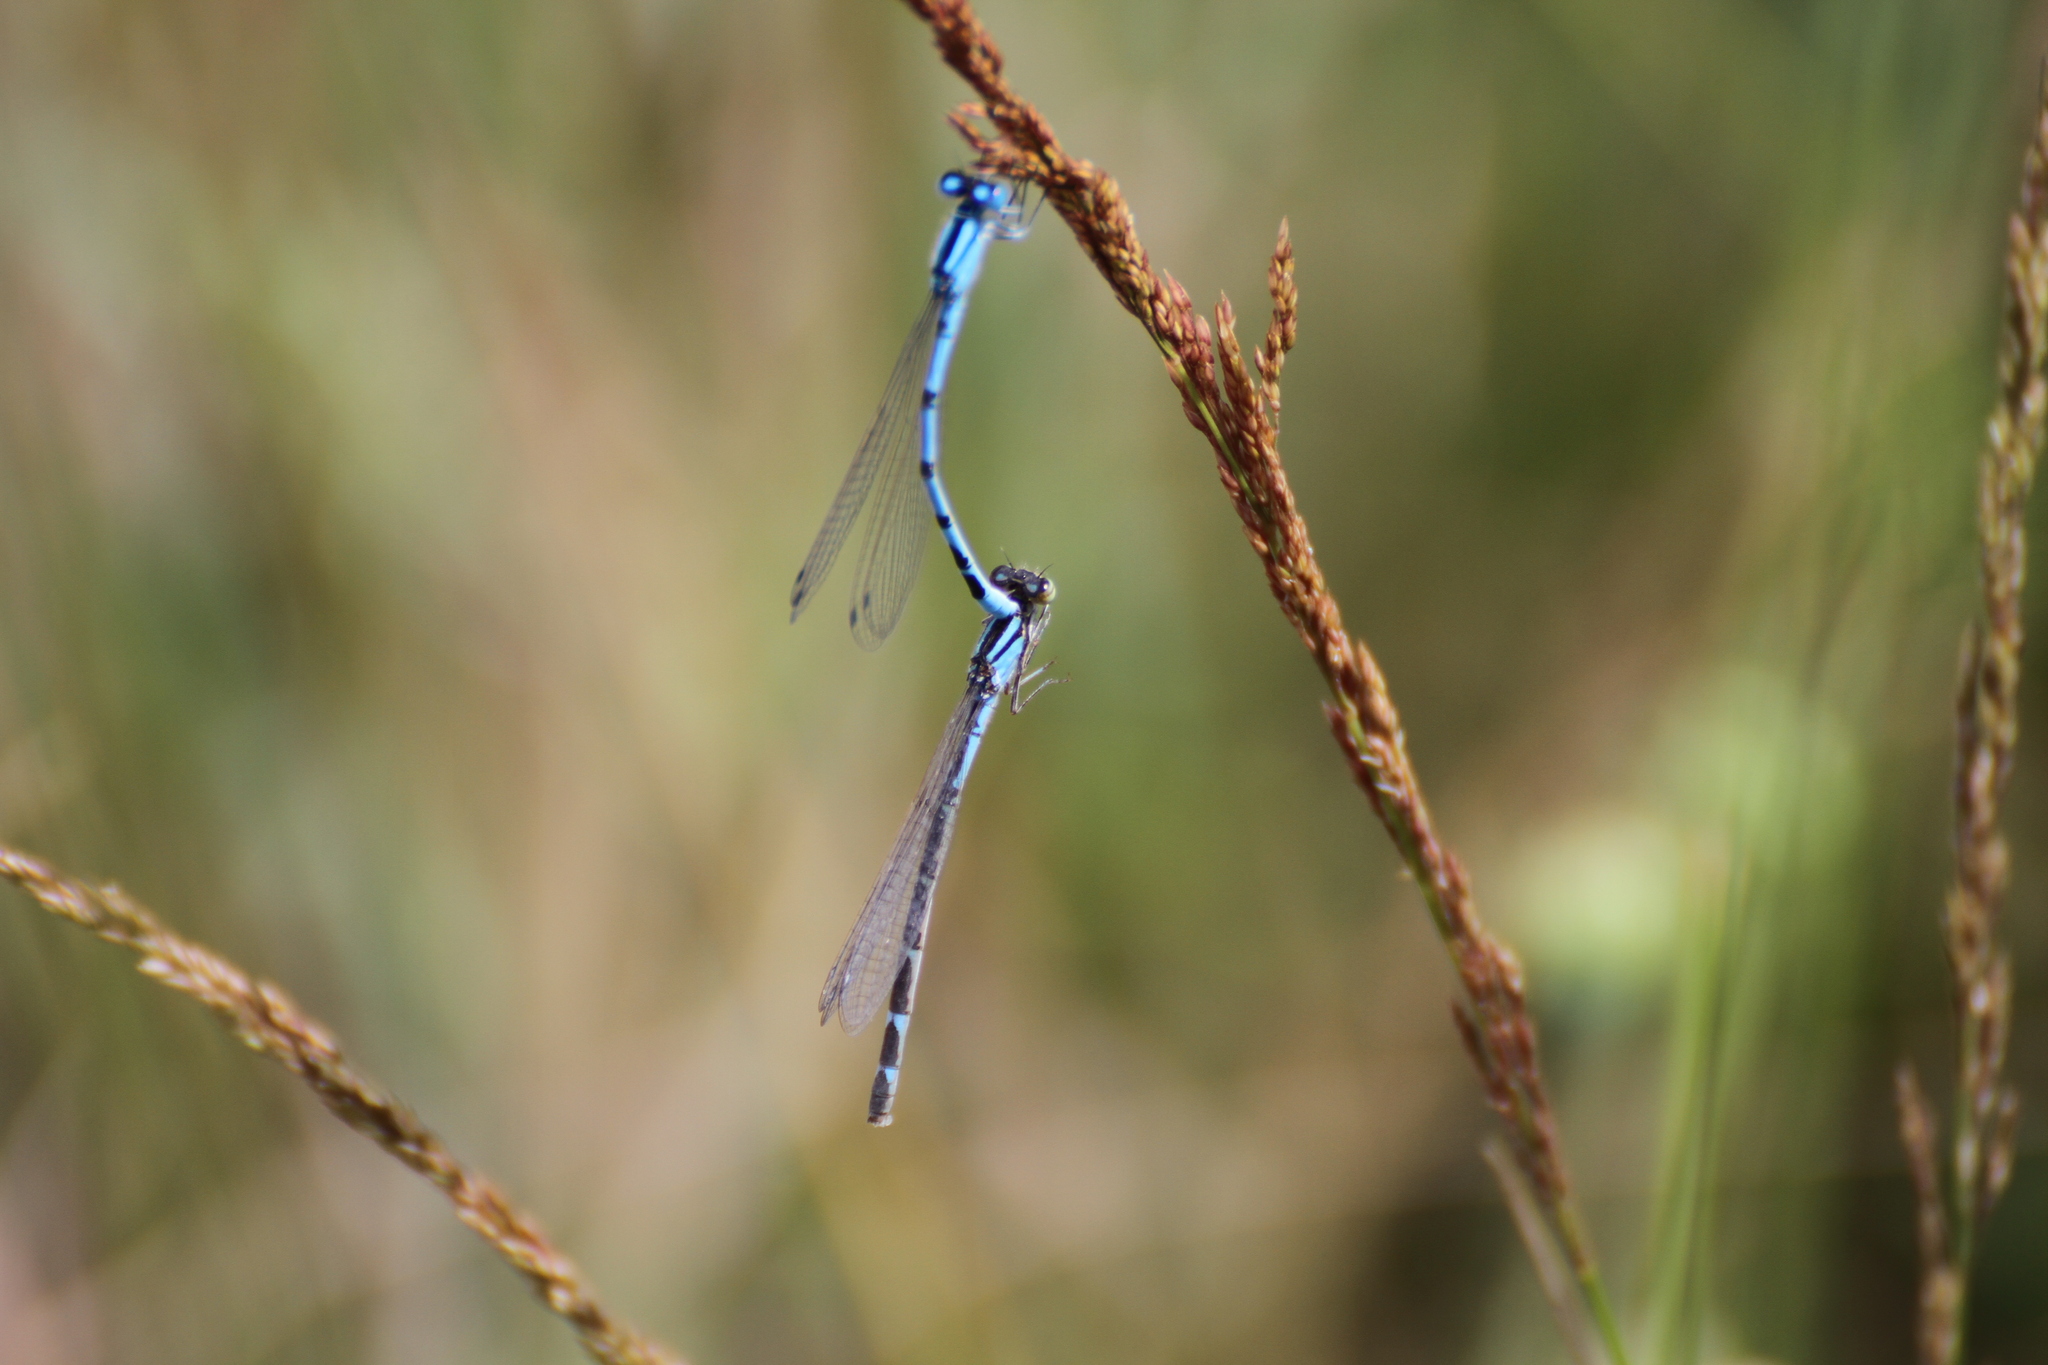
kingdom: Animalia
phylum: Arthropoda
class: Insecta
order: Odonata
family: Coenagrionidae
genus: Enallagma
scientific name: Enallagma cyathigerum
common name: Common blue damselfly
